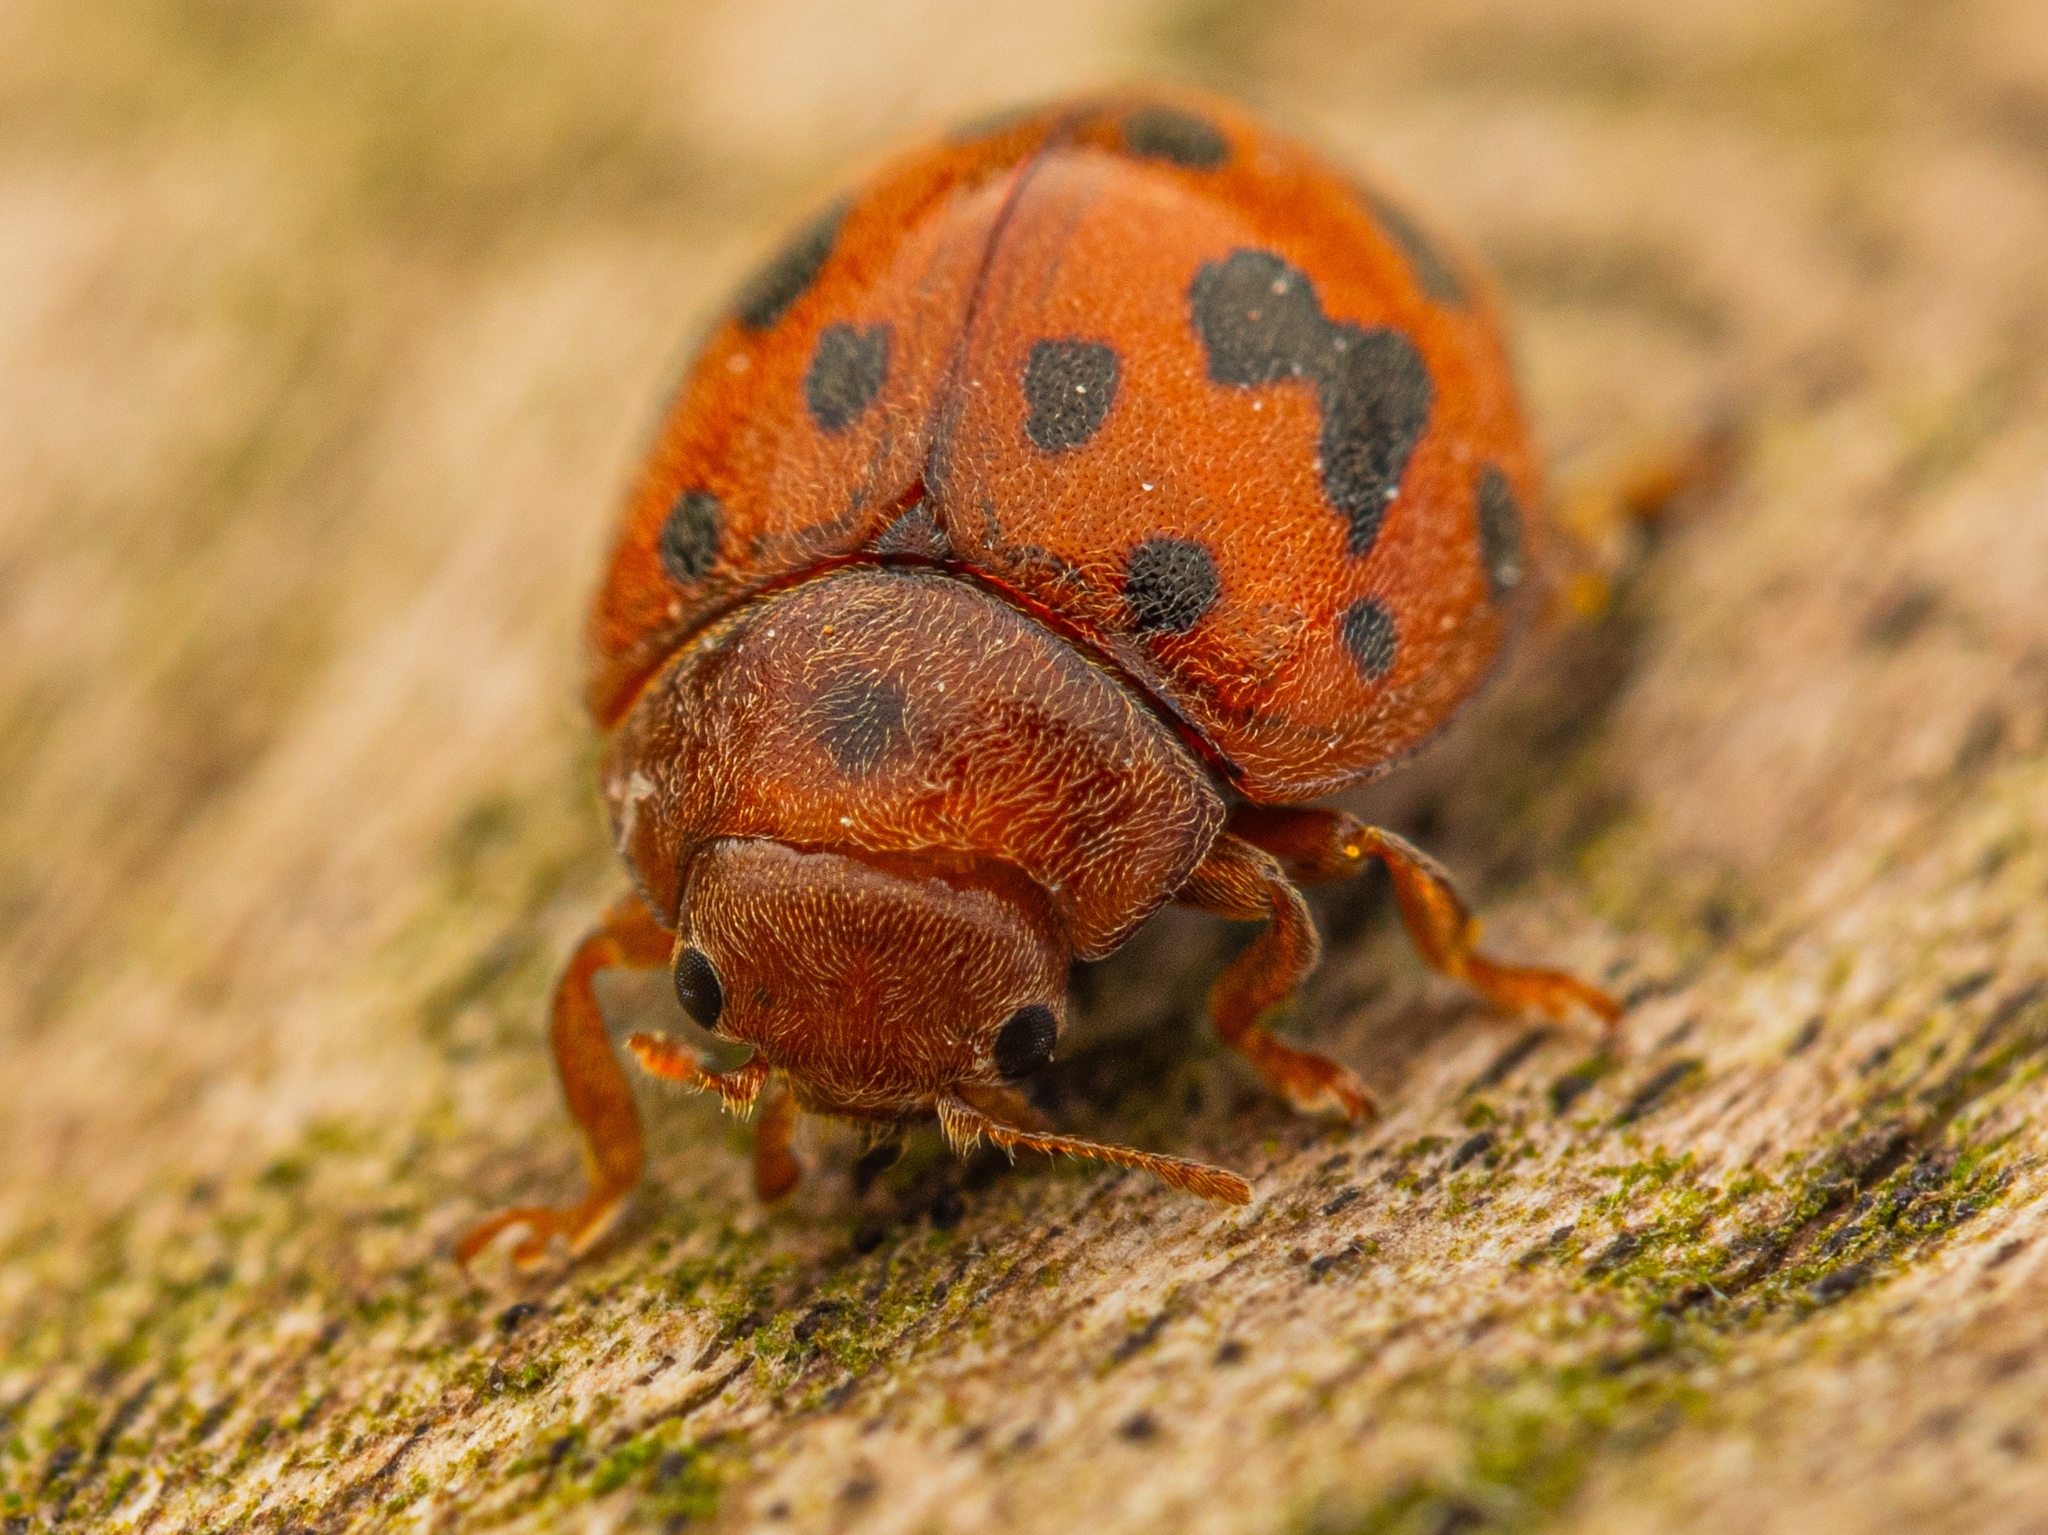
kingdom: Animalia
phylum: Arthropoda
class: Insecta
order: Coleoptera
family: Coccinellidae
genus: Subcoccinella
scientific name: Subcoccinella vigintiquatuorpunctata
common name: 24-spot ladybird
